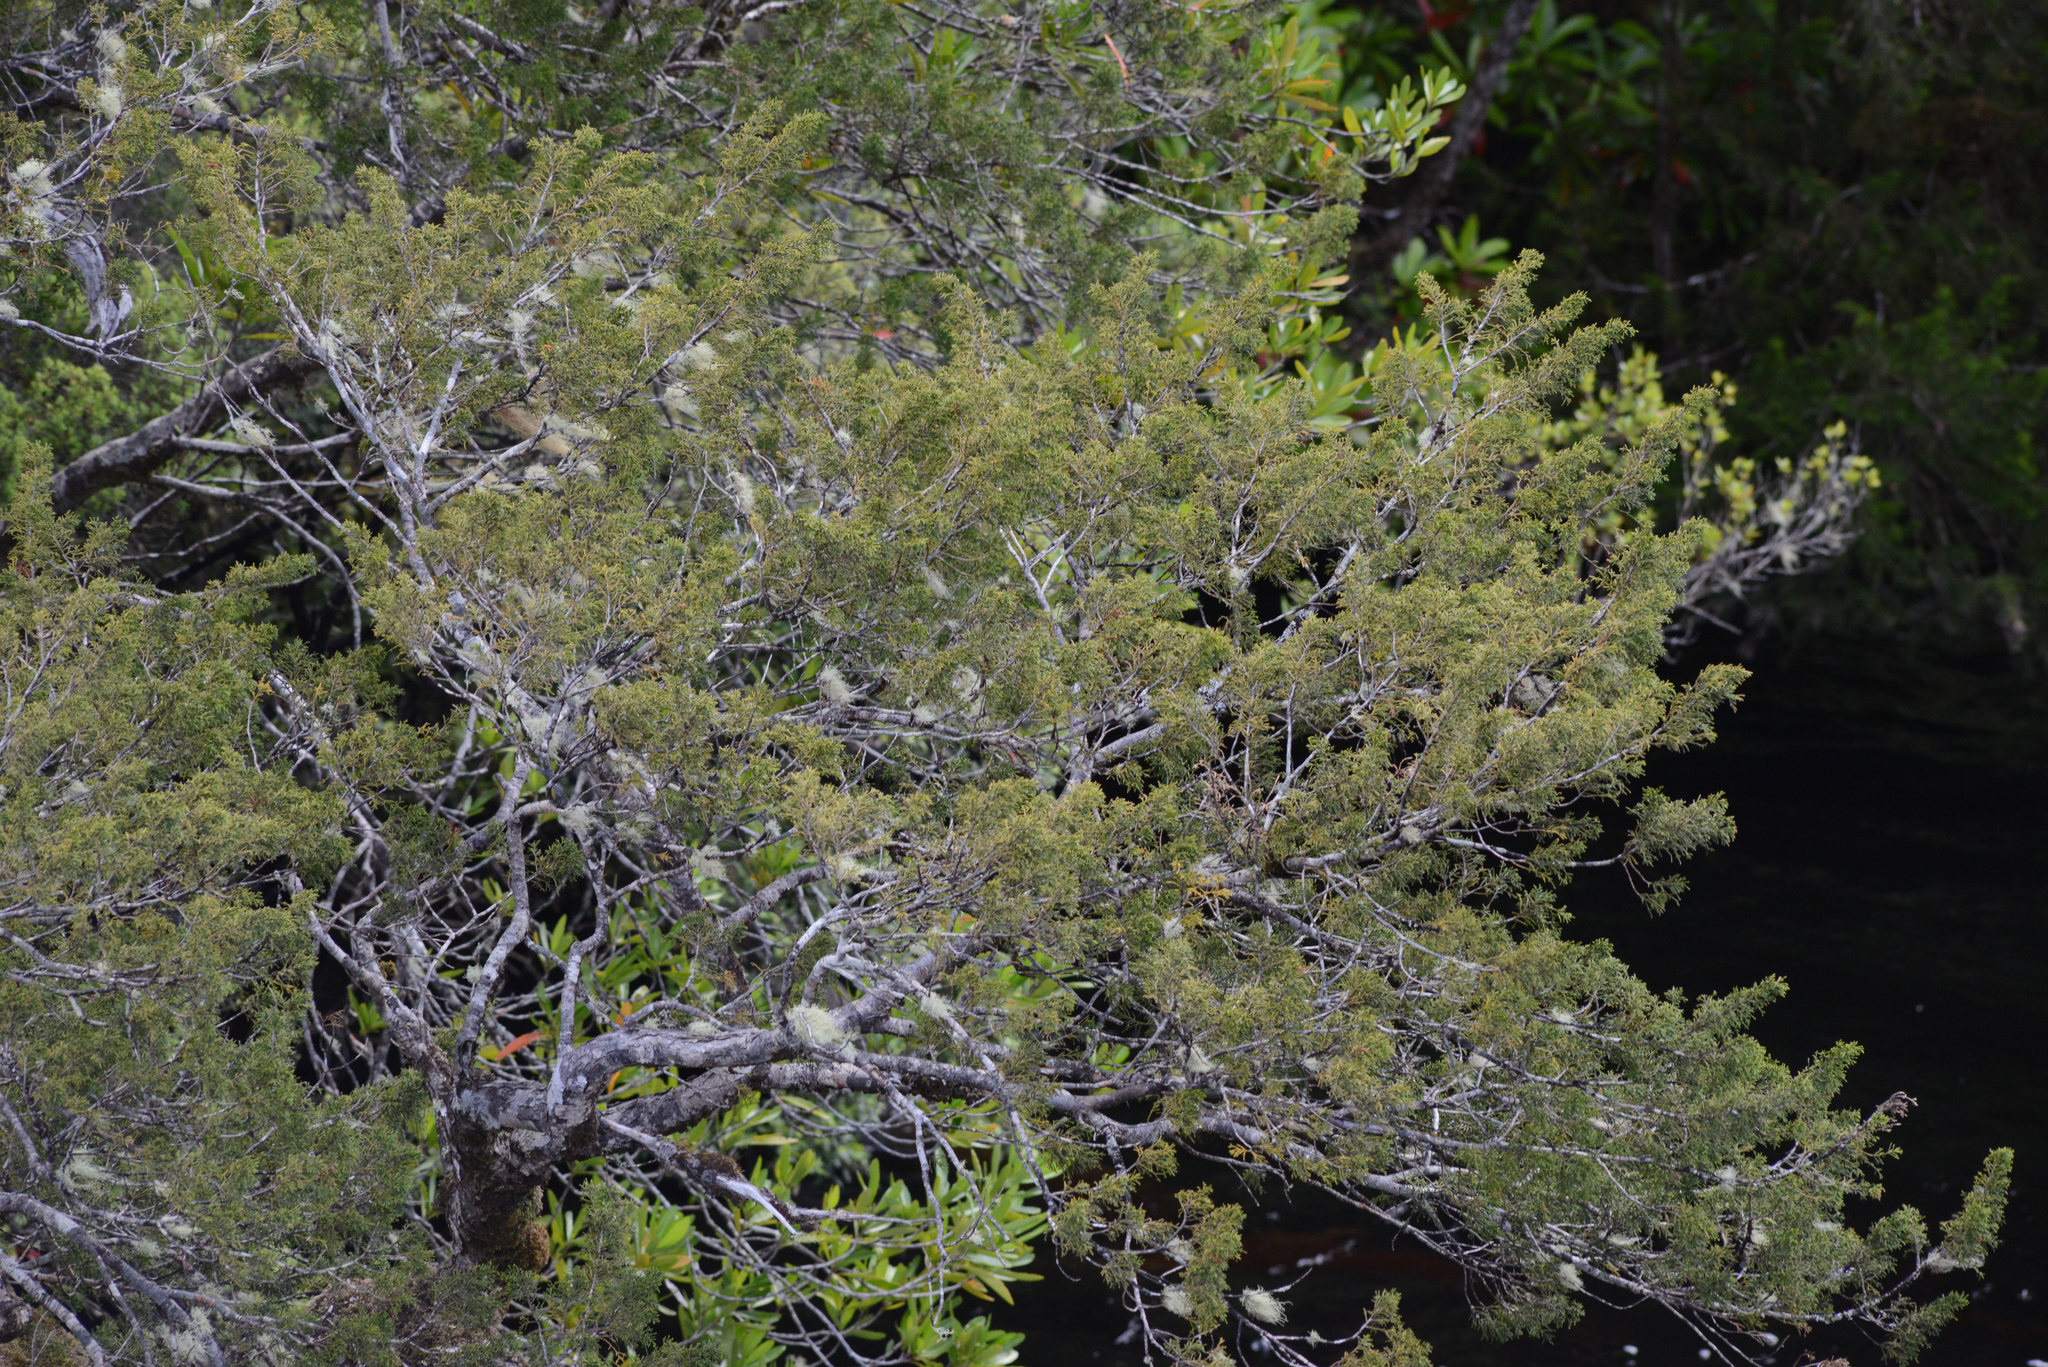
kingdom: Plantae
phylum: Tracheophyta
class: Pinopsida
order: Pinales
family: Podocarpaceae
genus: Lagarostrobos
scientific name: Lagarostrobos franklinii
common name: Huon pine
